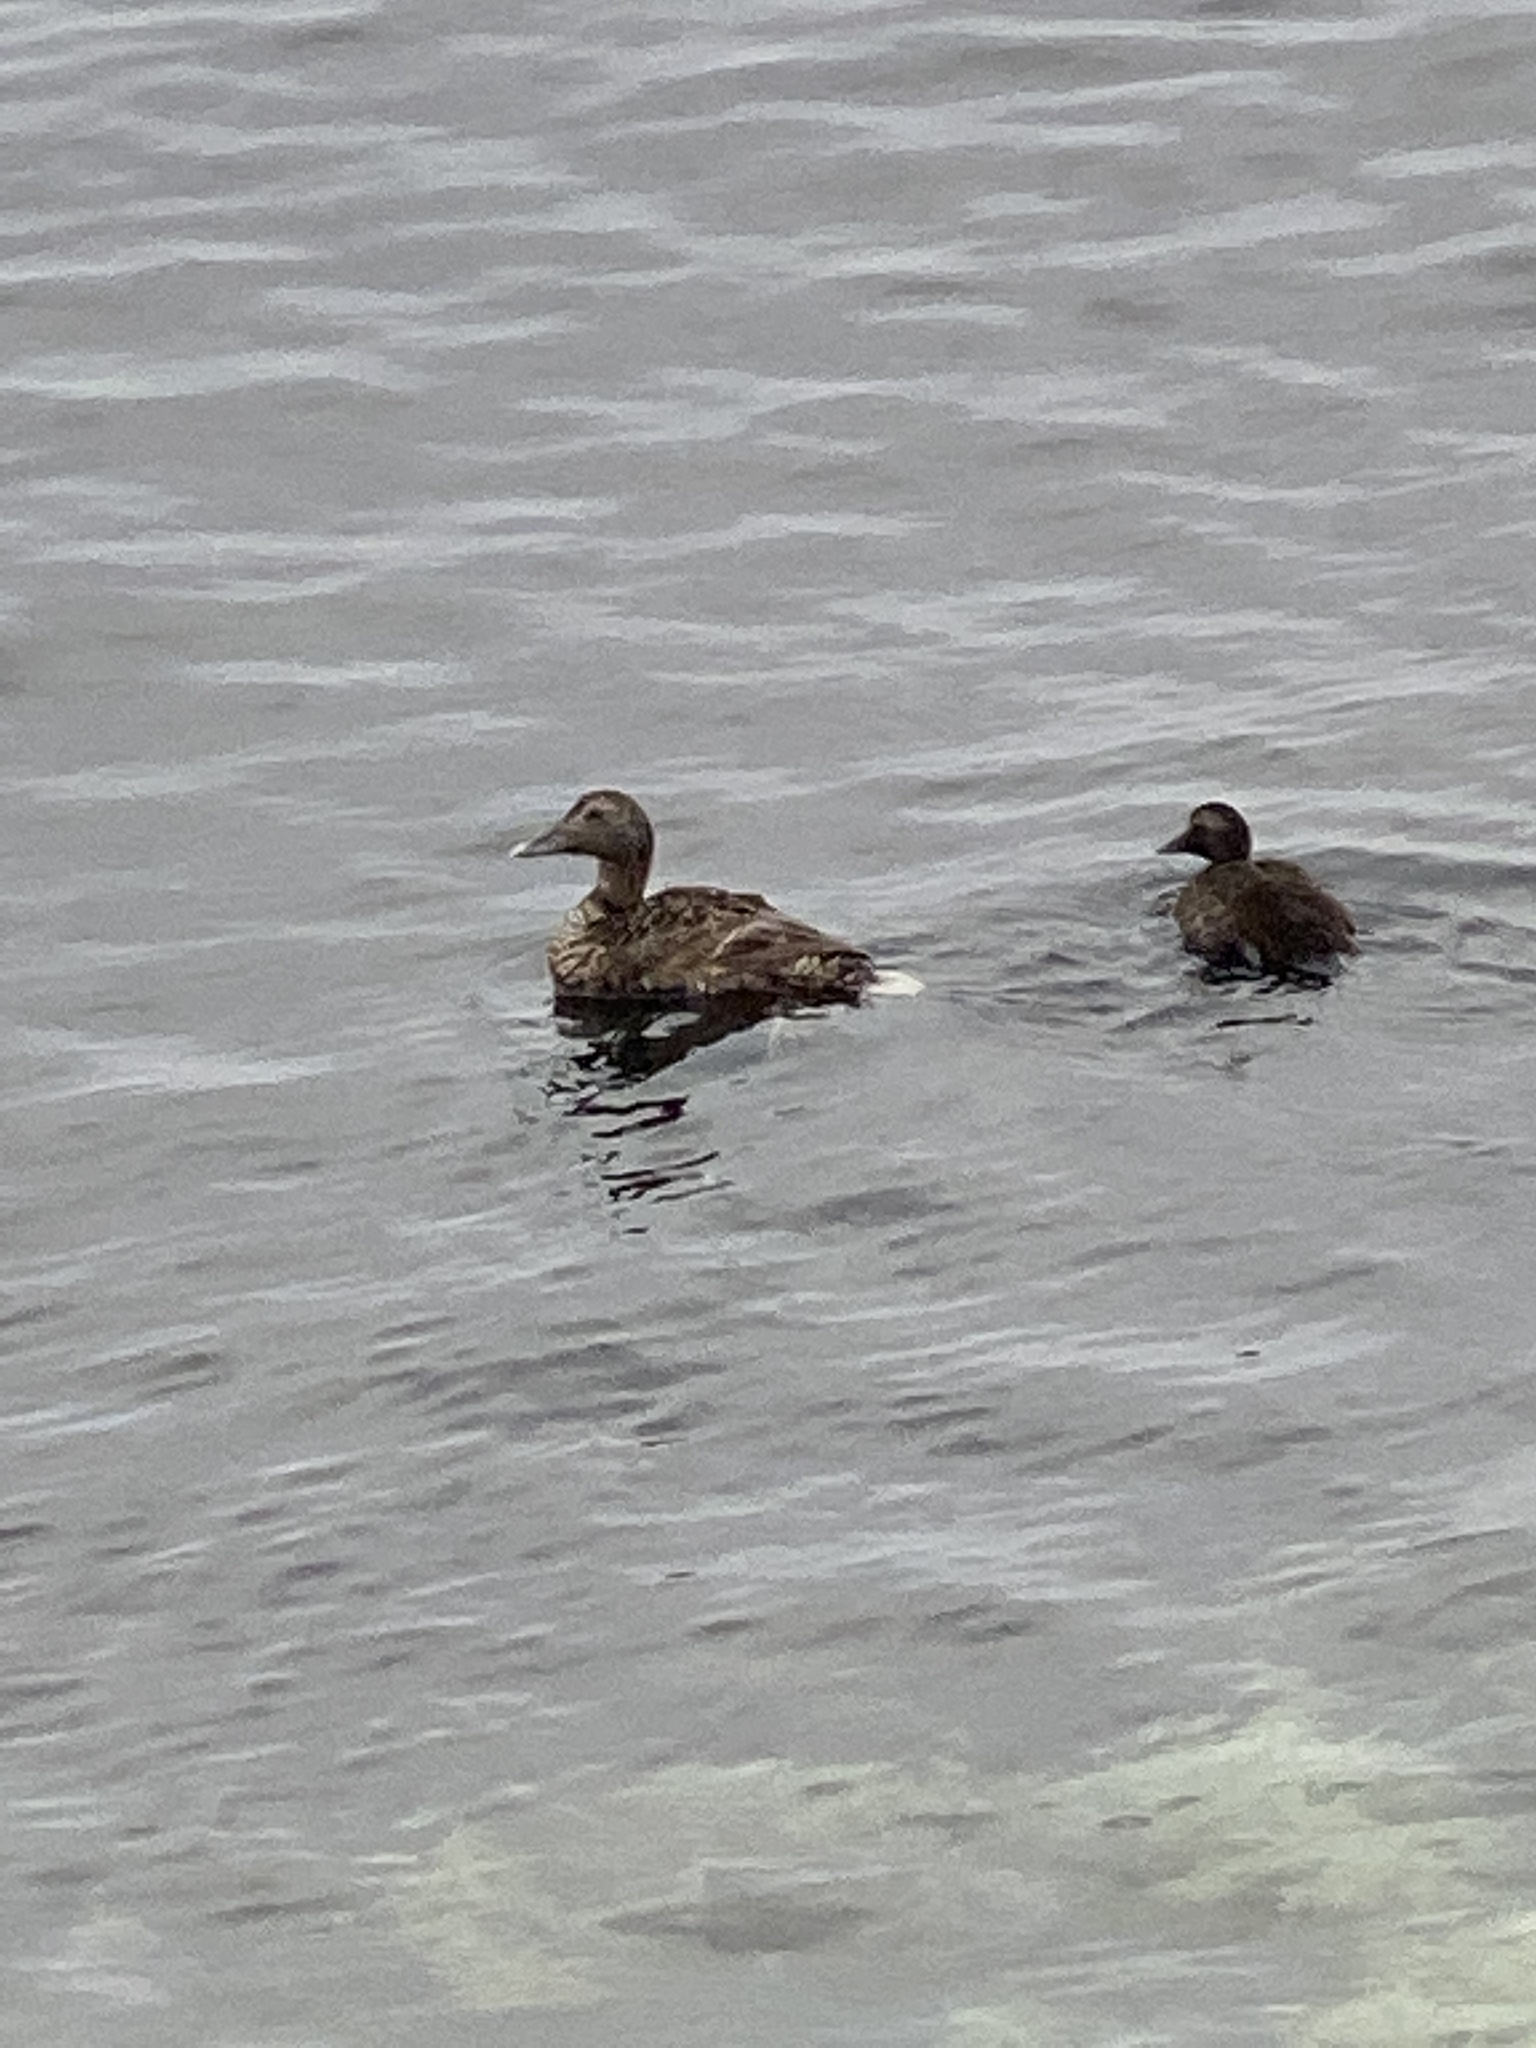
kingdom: Animalia
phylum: Chordata
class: Aves
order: Anseriformes
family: Anatidae
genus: Somateria
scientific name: Somateria mollissima
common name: Common eider
